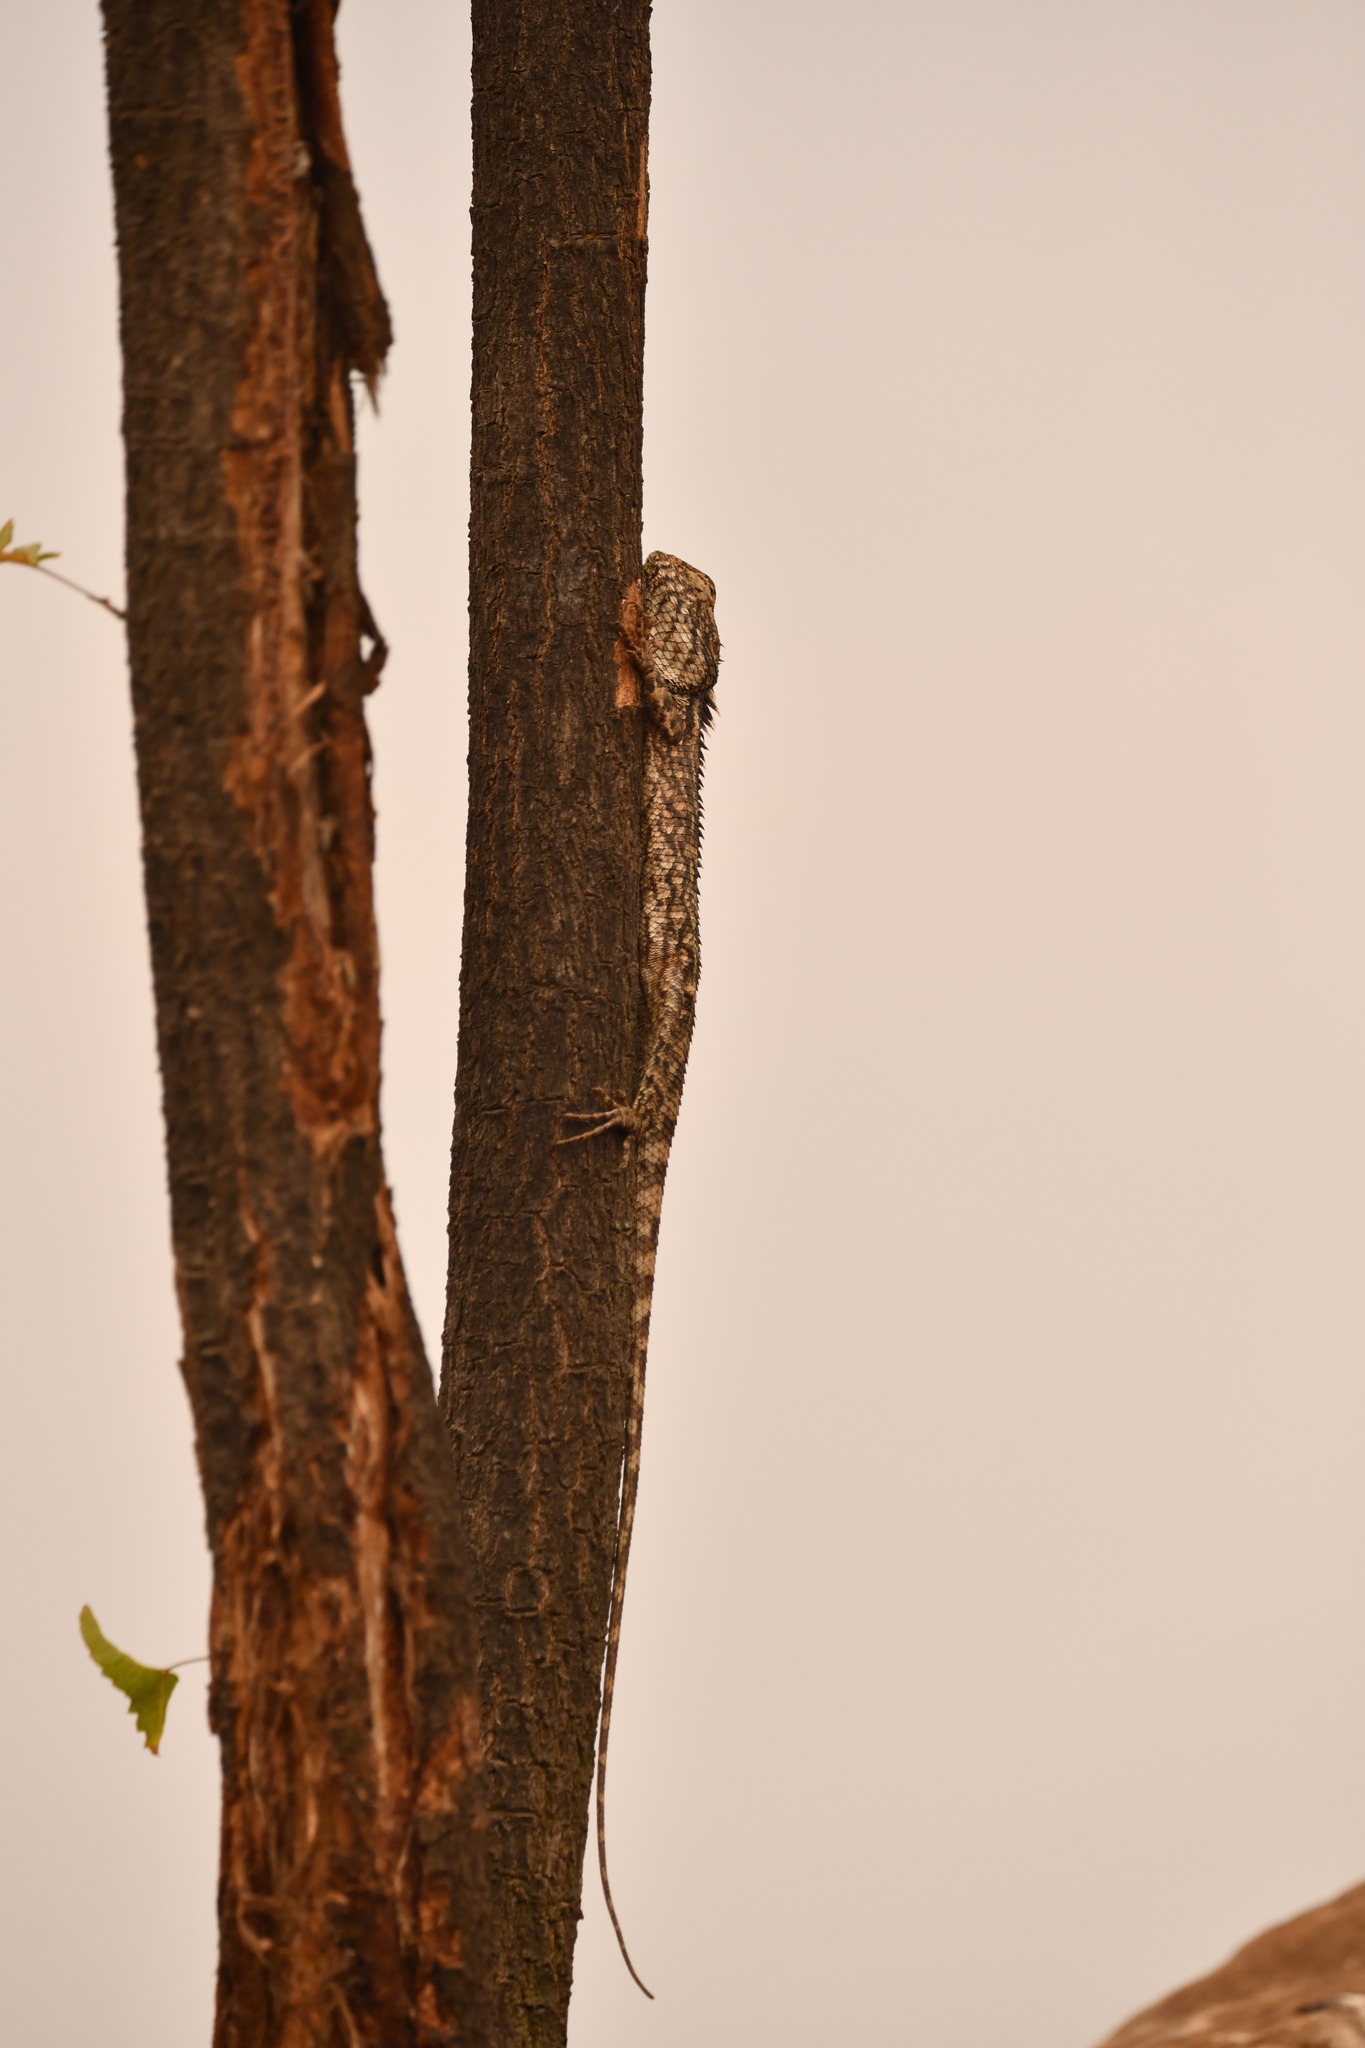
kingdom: Animalia
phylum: Chordata
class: Squamata
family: Agamidae
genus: Calotes
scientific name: Calotes versicolor
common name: Oriental garden lizard
